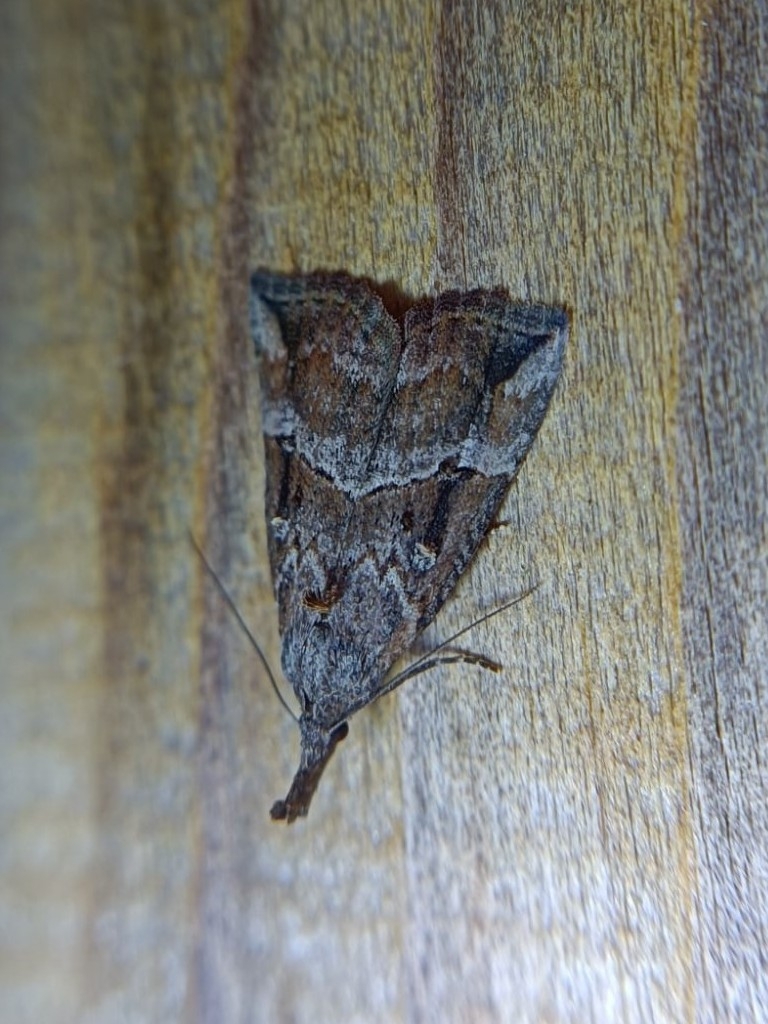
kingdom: Animalia
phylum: Arthropoda
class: Insecta
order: Lepidoptera
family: Erebidae
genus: Hypena
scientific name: Hypena rostralis
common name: Buttoned snout
